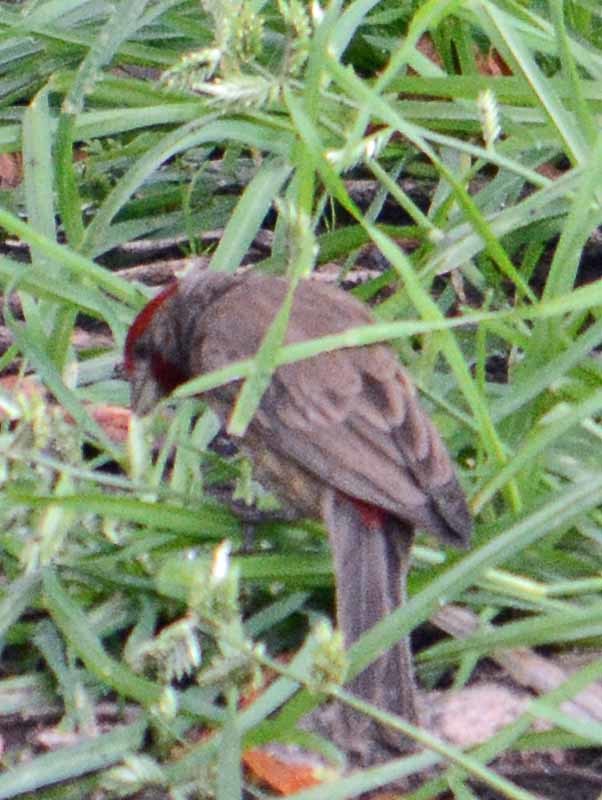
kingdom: Animalia
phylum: Chordata
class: Aves
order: Passeriformes
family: Fringillidae
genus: Haemorhous
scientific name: Haemorhous mexicanus
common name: House finch
